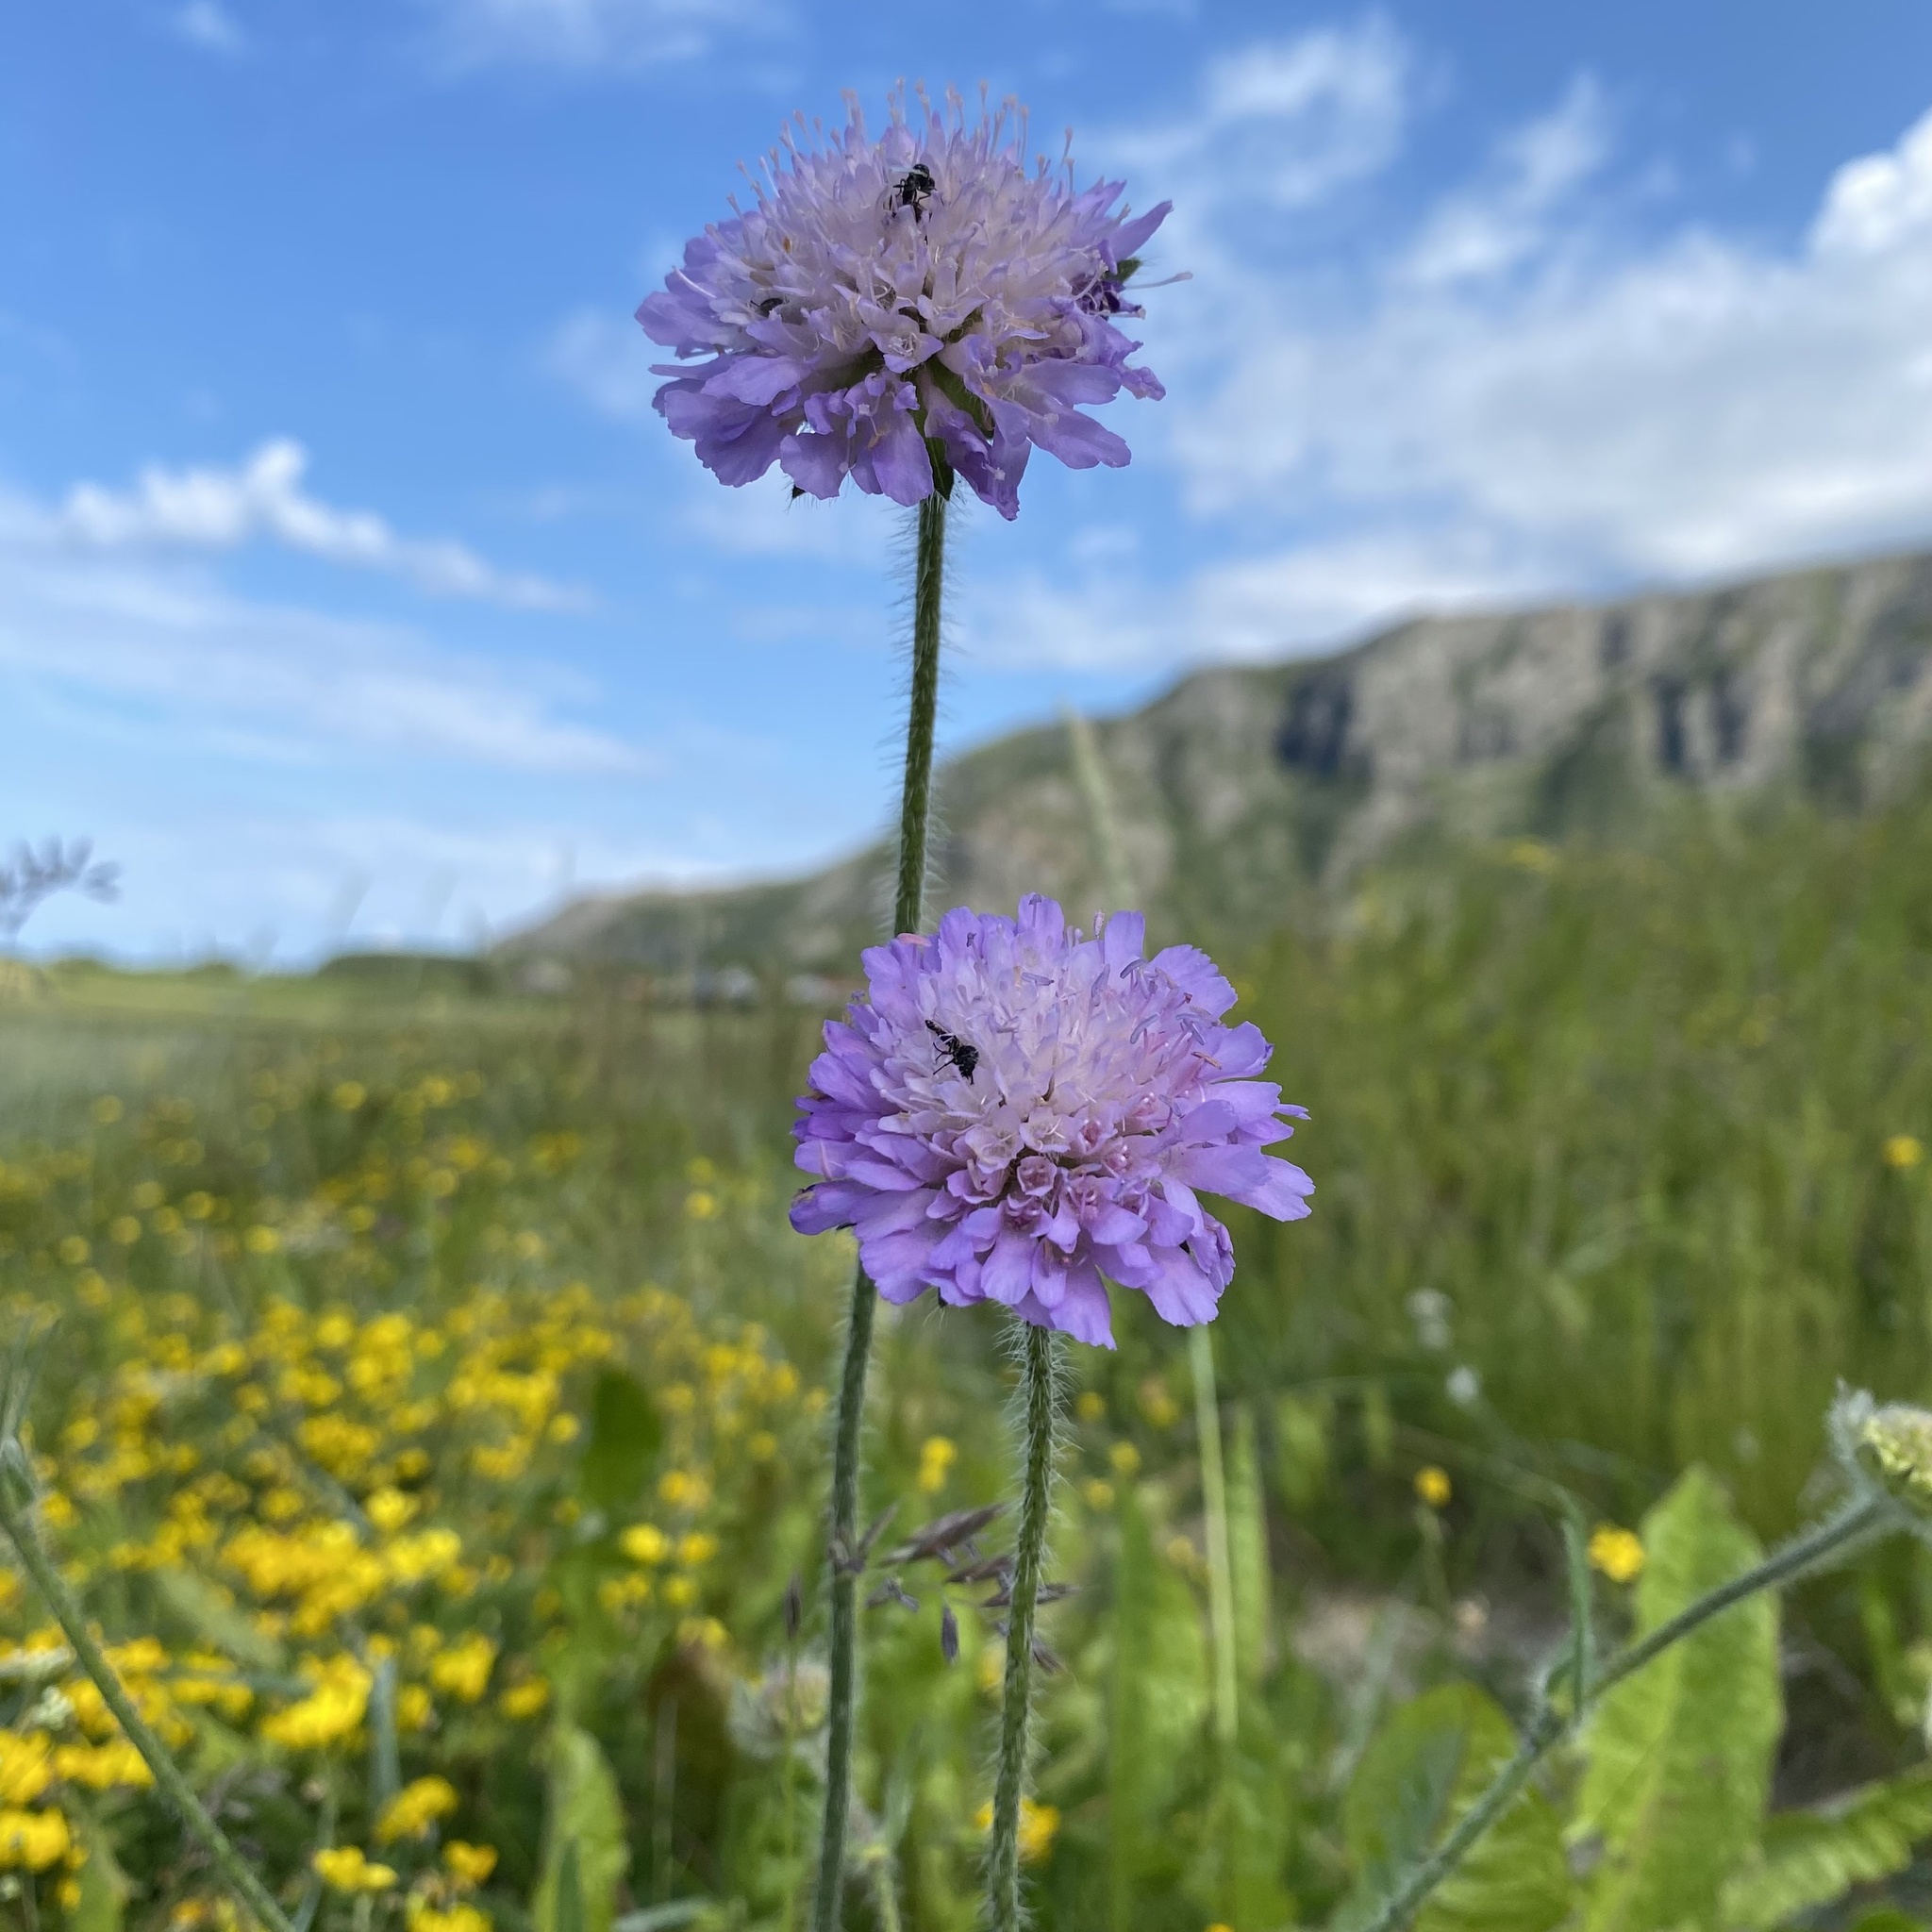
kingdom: Plantae
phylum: Tracheophyta
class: Magnoliopsida
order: Dipsacales
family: Caprifoliaceae
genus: Knautia
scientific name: Knautia arvensis
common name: Field scabiosa
